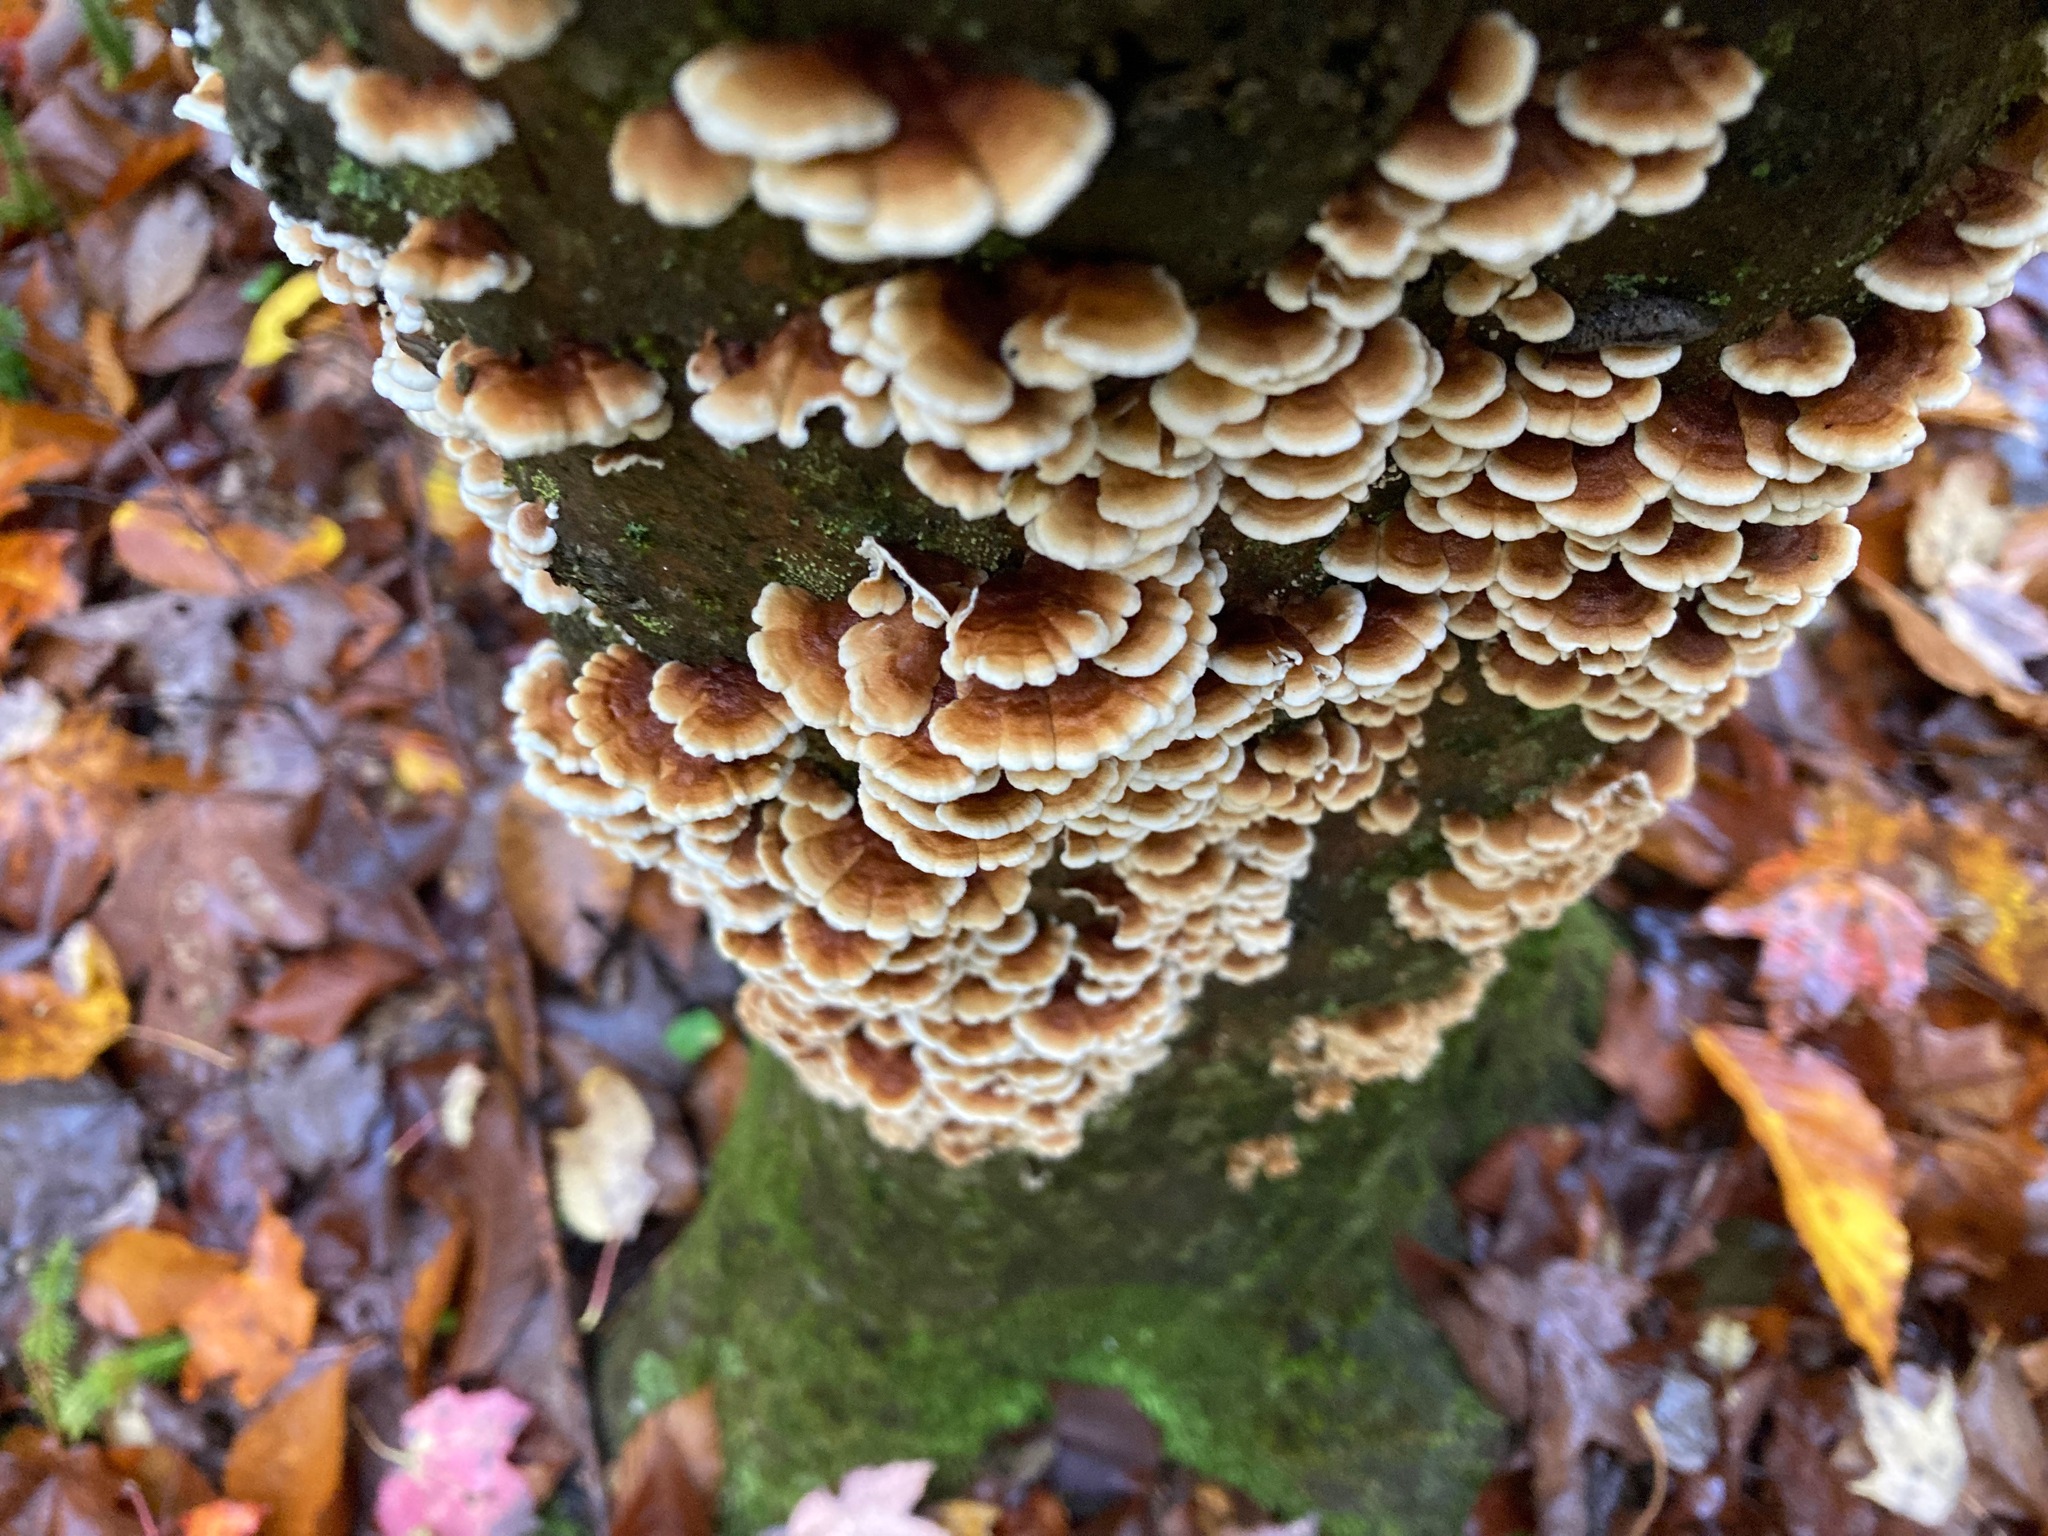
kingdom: Fungi
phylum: Basidiomycota
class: Agaricomycetes
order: Amylocorticiales
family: Amylocorticiaceae
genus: Plicaturopsis
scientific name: Plicaturopsis crispa
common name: Crimped gill
